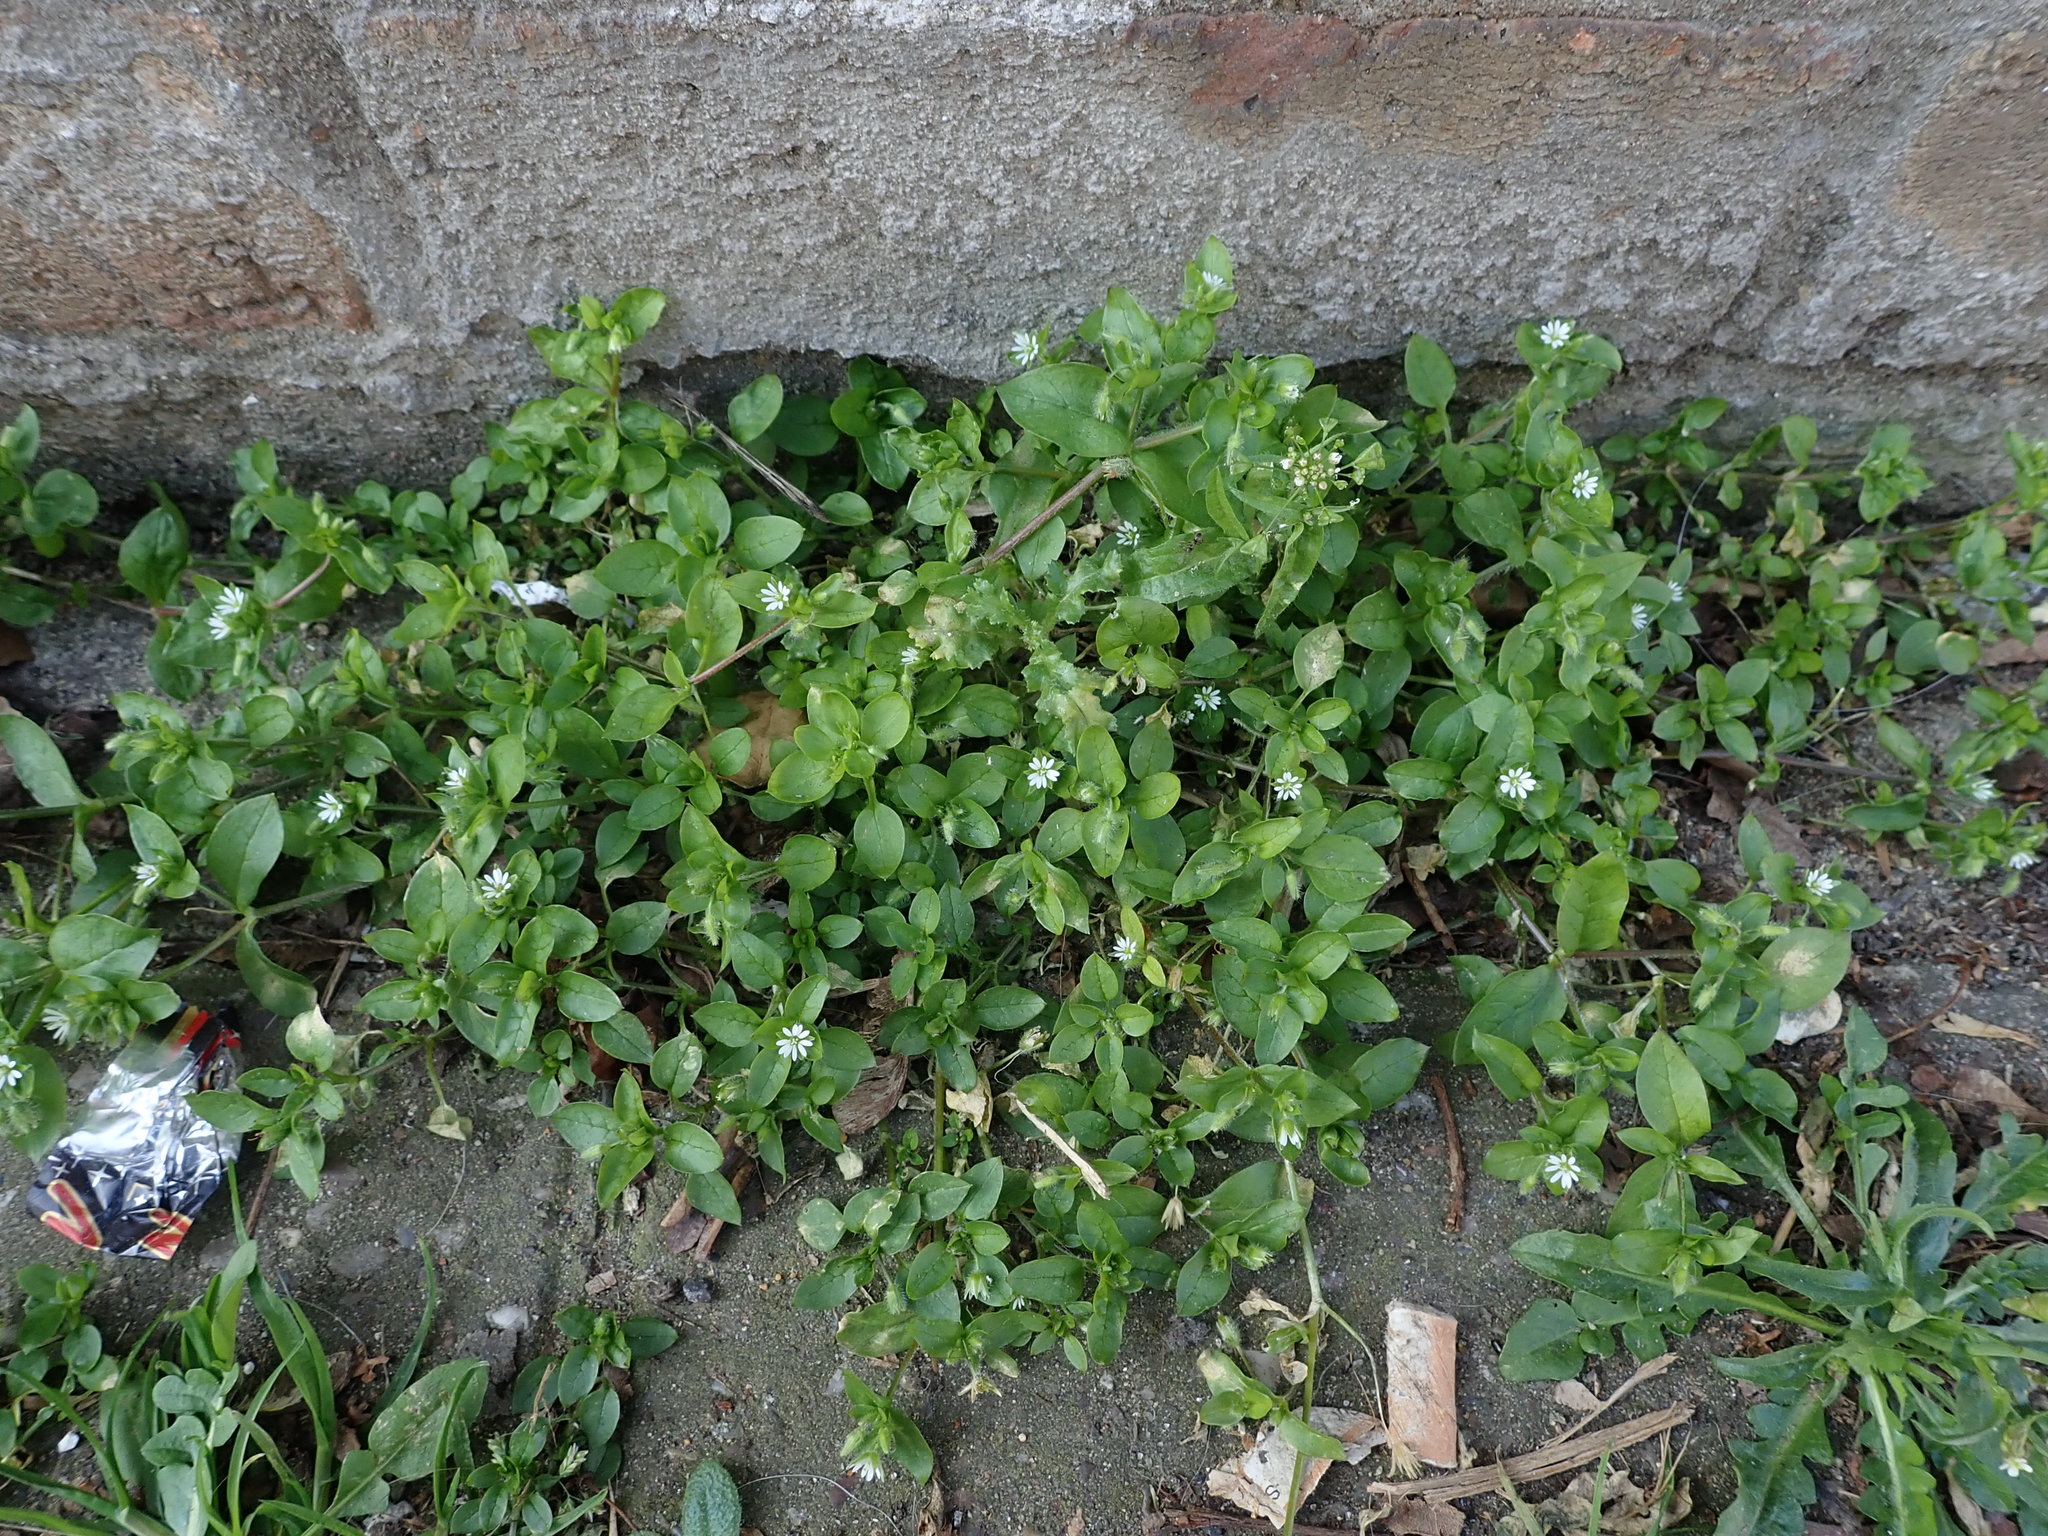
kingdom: Plantae
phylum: Tracheophyta
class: Magnoliopsida
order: Caryophyllales
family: Caryophyllaceae
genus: Stellaria
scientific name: Stellaria media
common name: Common chickweed
